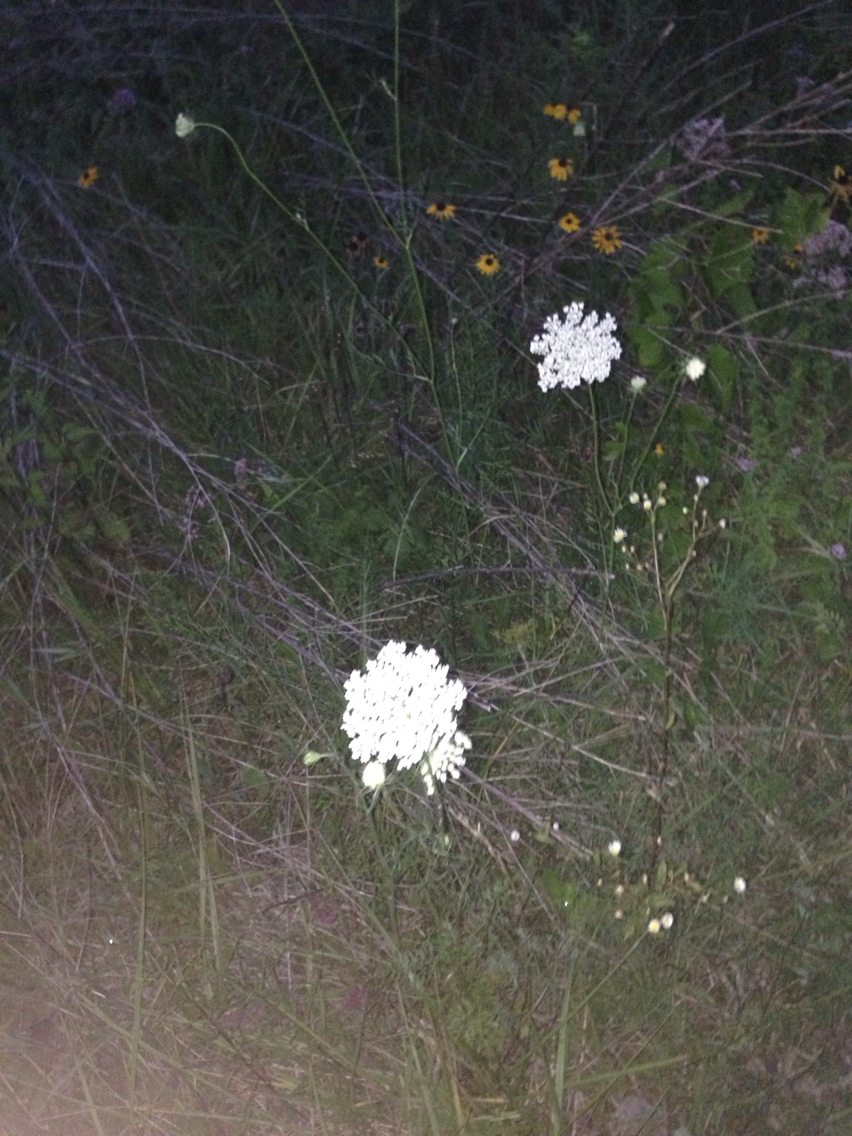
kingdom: Plantae
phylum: Tracheophyta
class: Magnoliopsida
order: Apiales
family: Apiaceae
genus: Daucus
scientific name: Daucus carota
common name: Wild carrot
